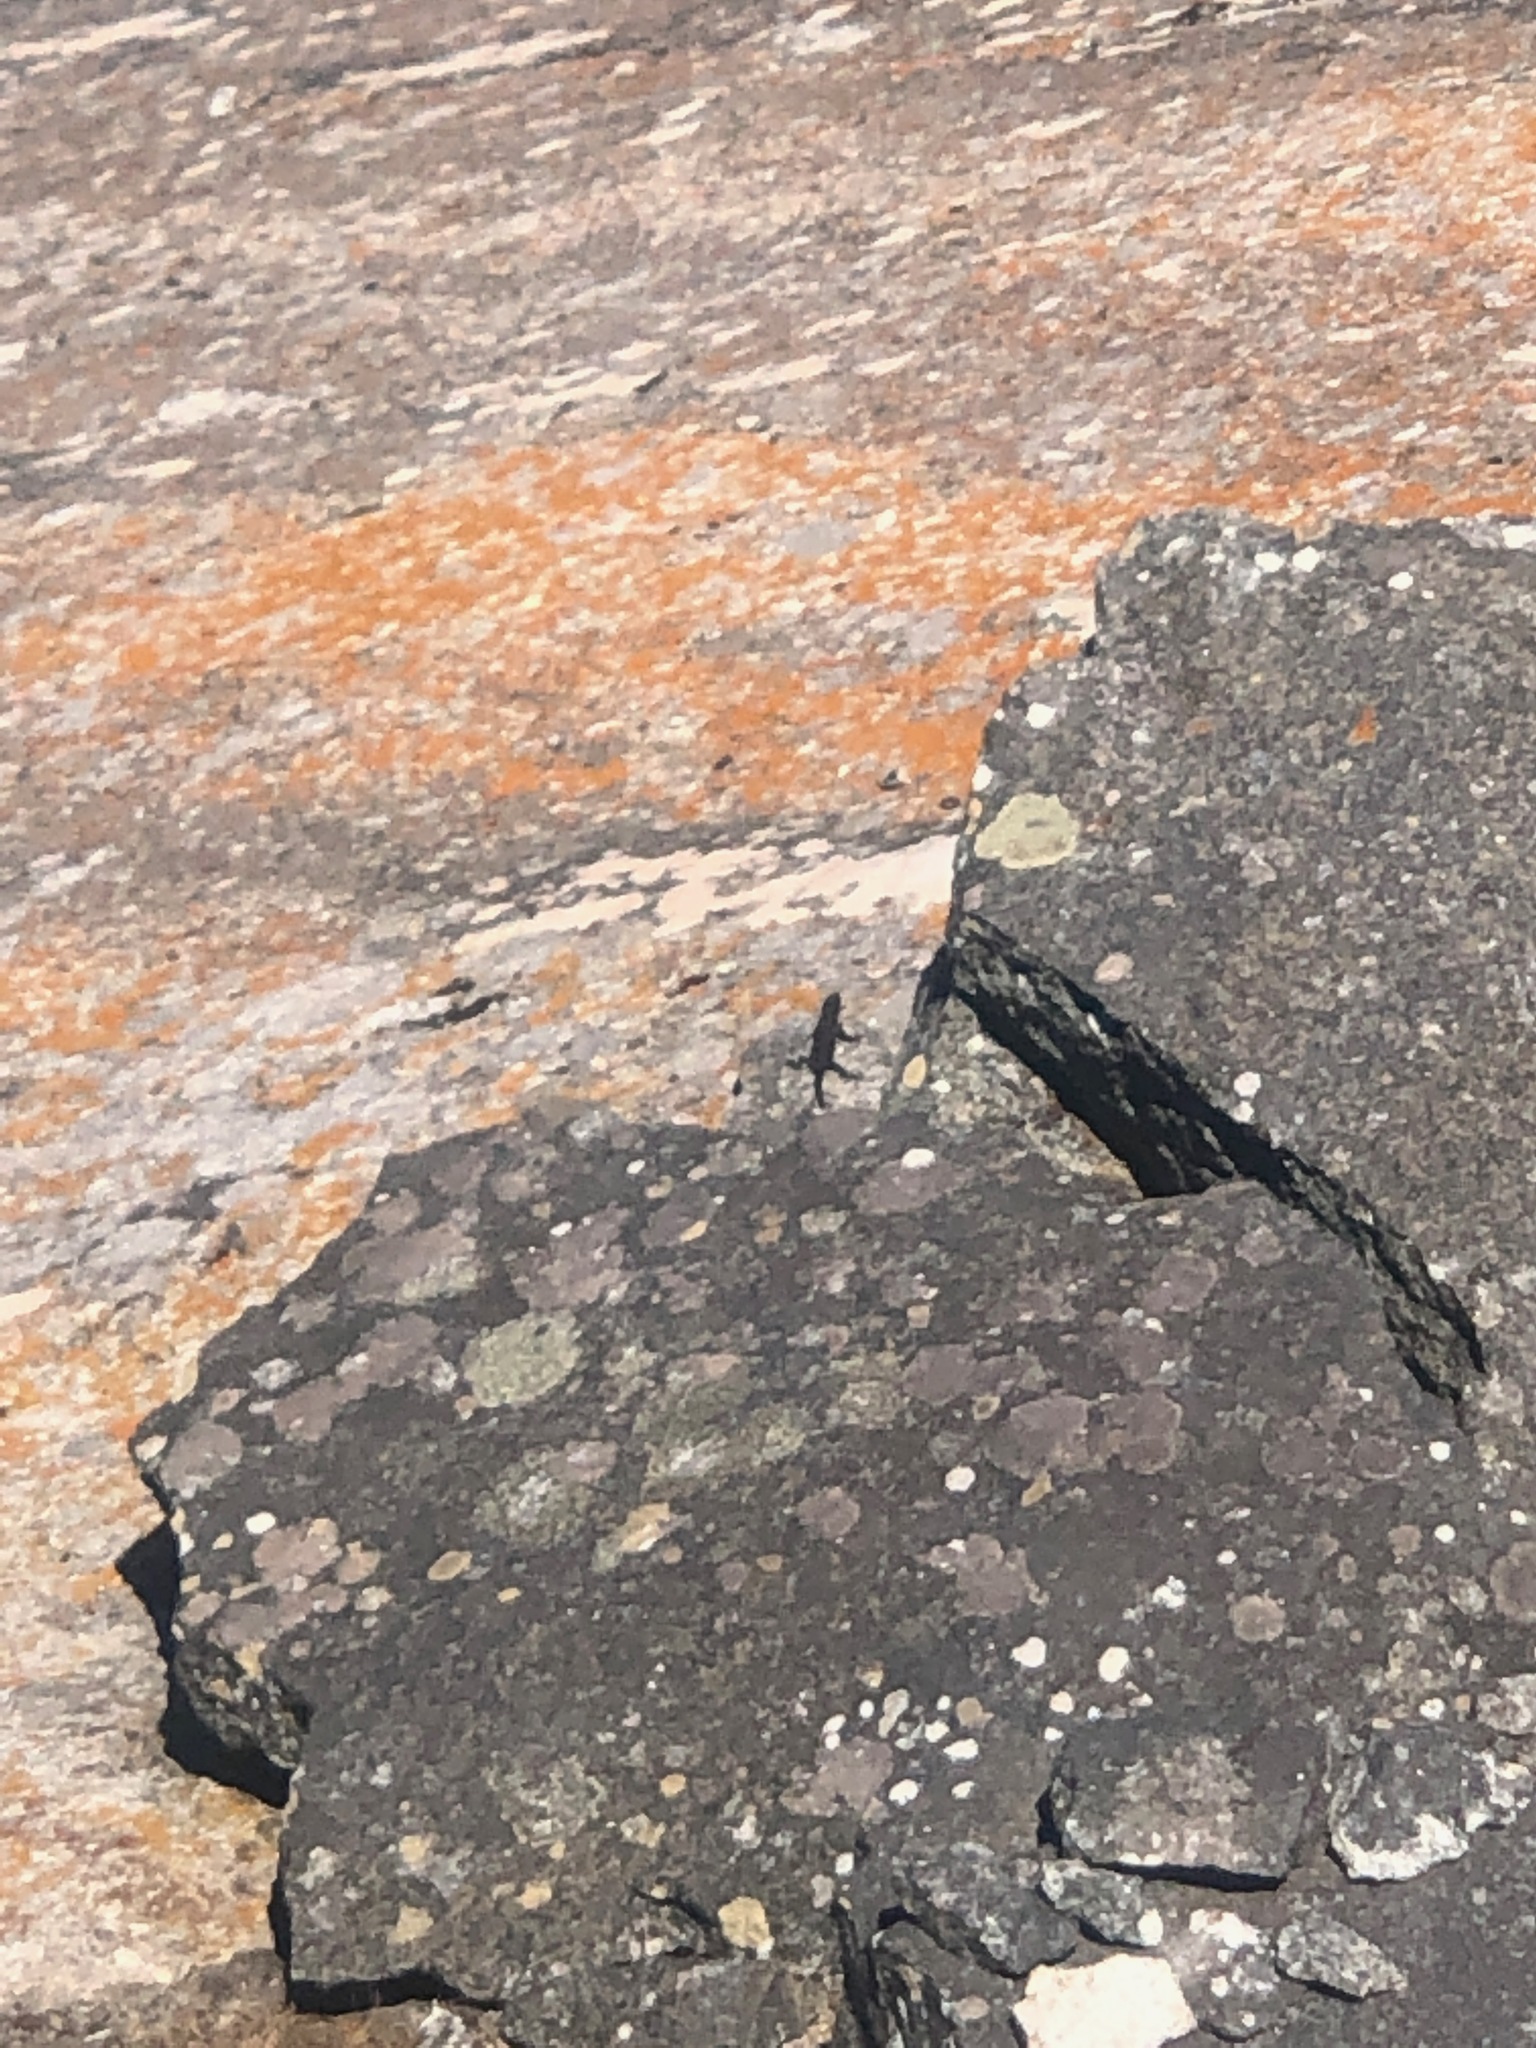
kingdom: Animalia
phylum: Chordata
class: Squamata
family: Cordylidae
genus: Karusasaurus
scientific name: Karusasaurus polyzonus
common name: Karoo girdled lizard
